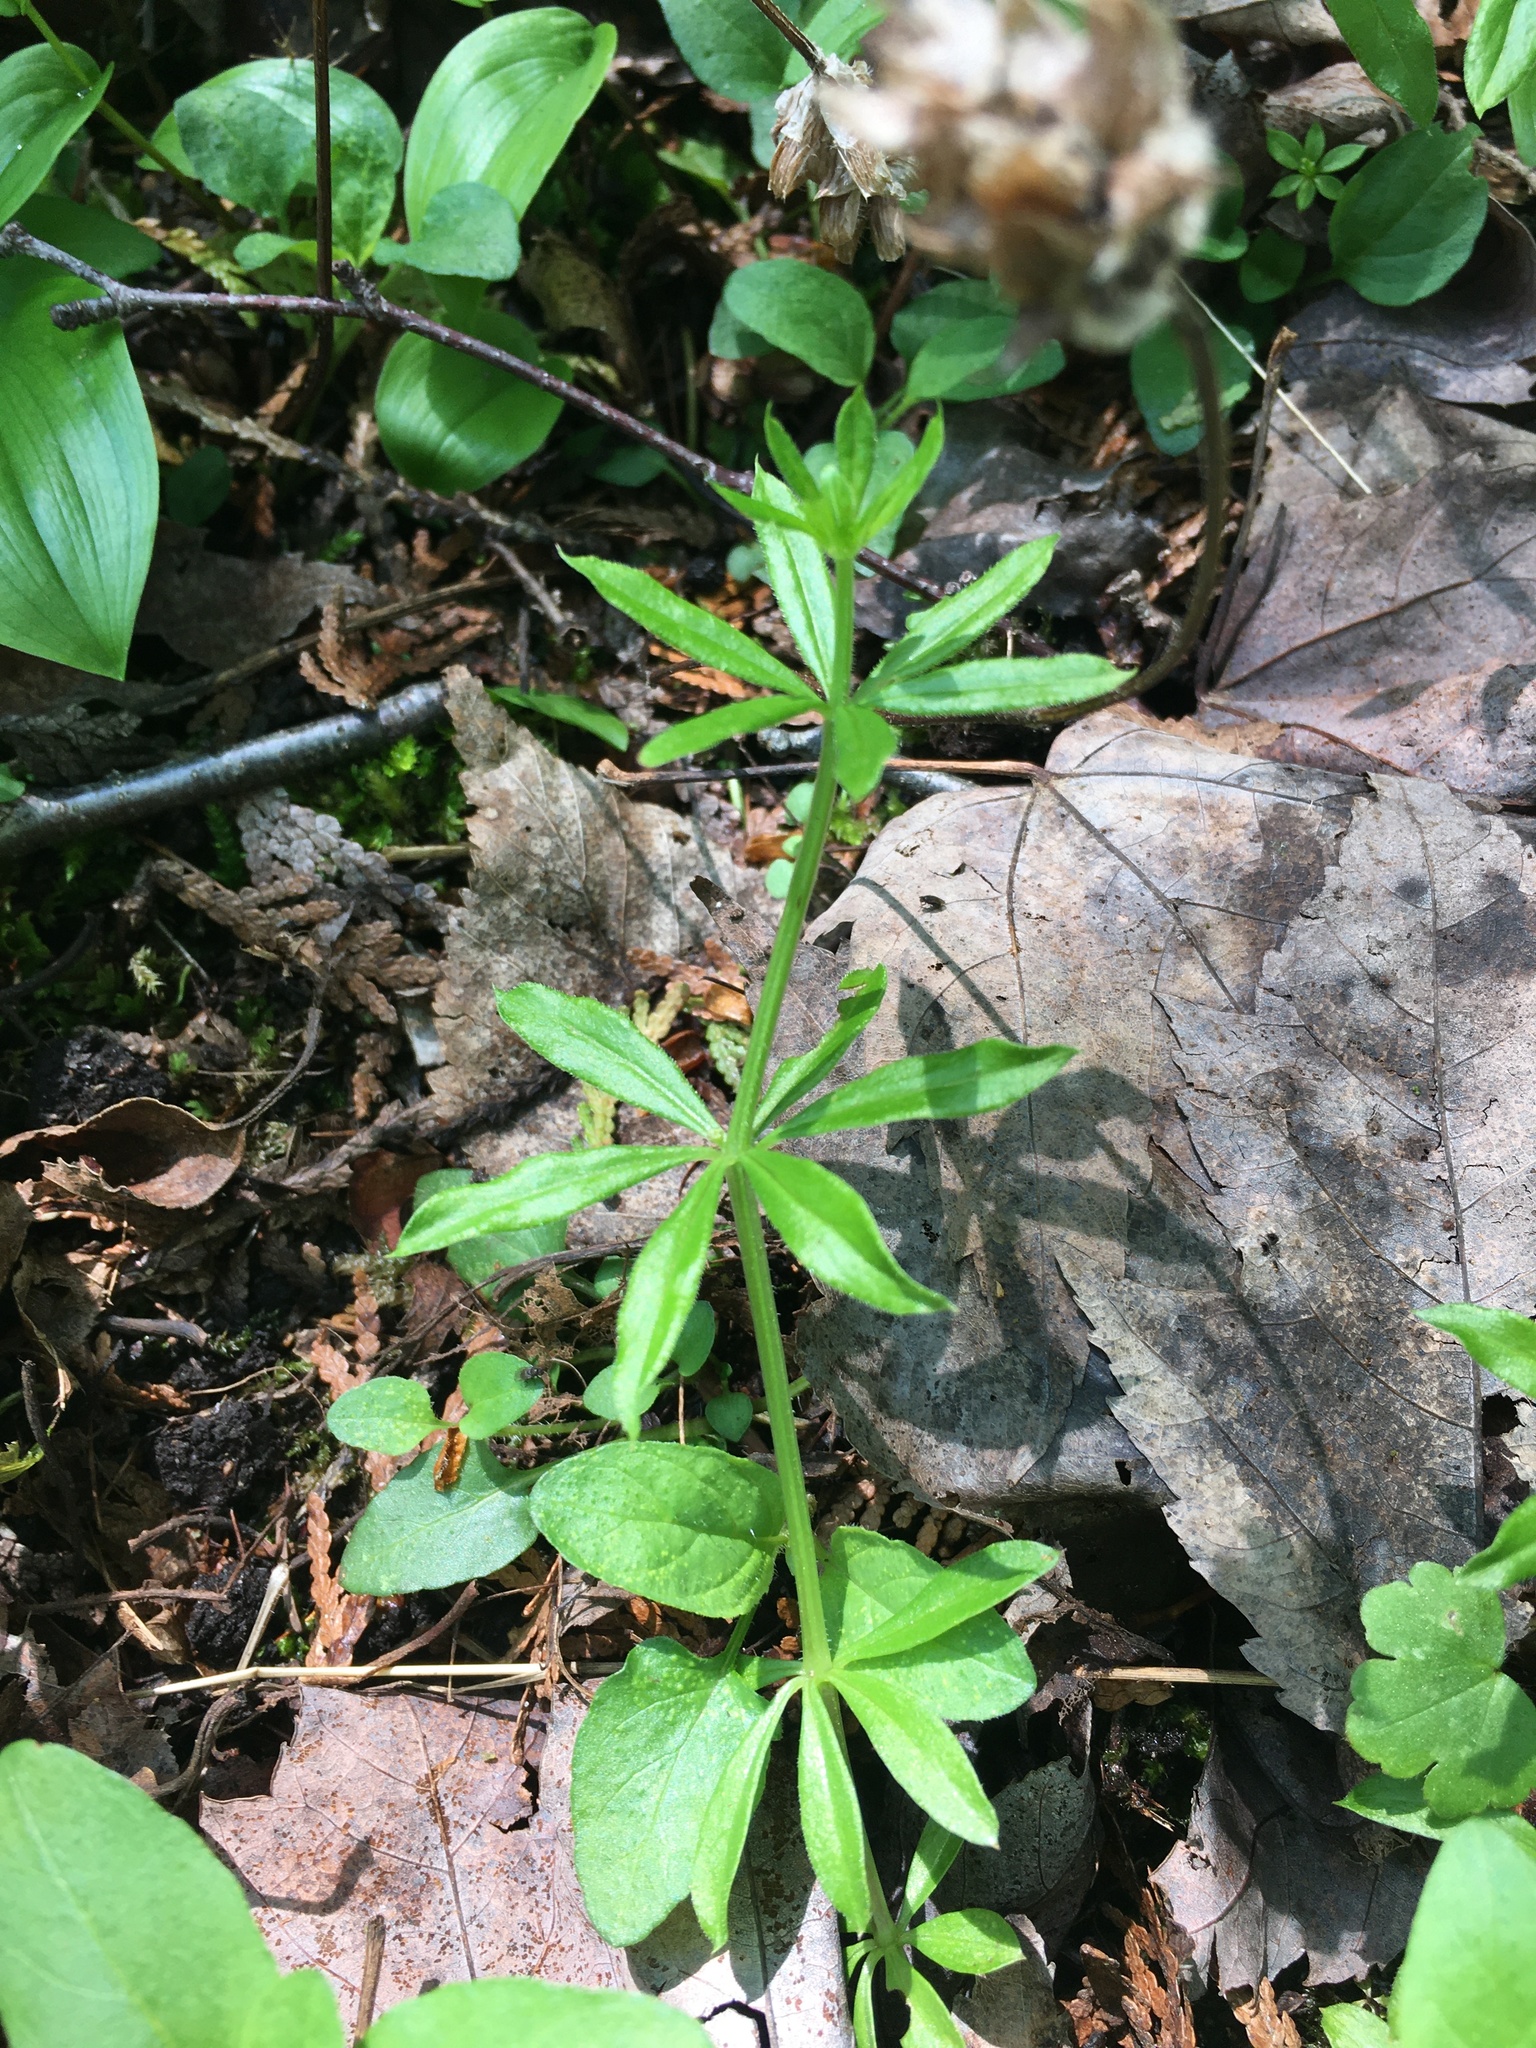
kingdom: Plantae
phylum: Tracheophyta
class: Magnoliopsida
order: Gentianales
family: Rubiaceae
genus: Galium
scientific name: Galium triflorum
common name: Fragrant bedstraw
